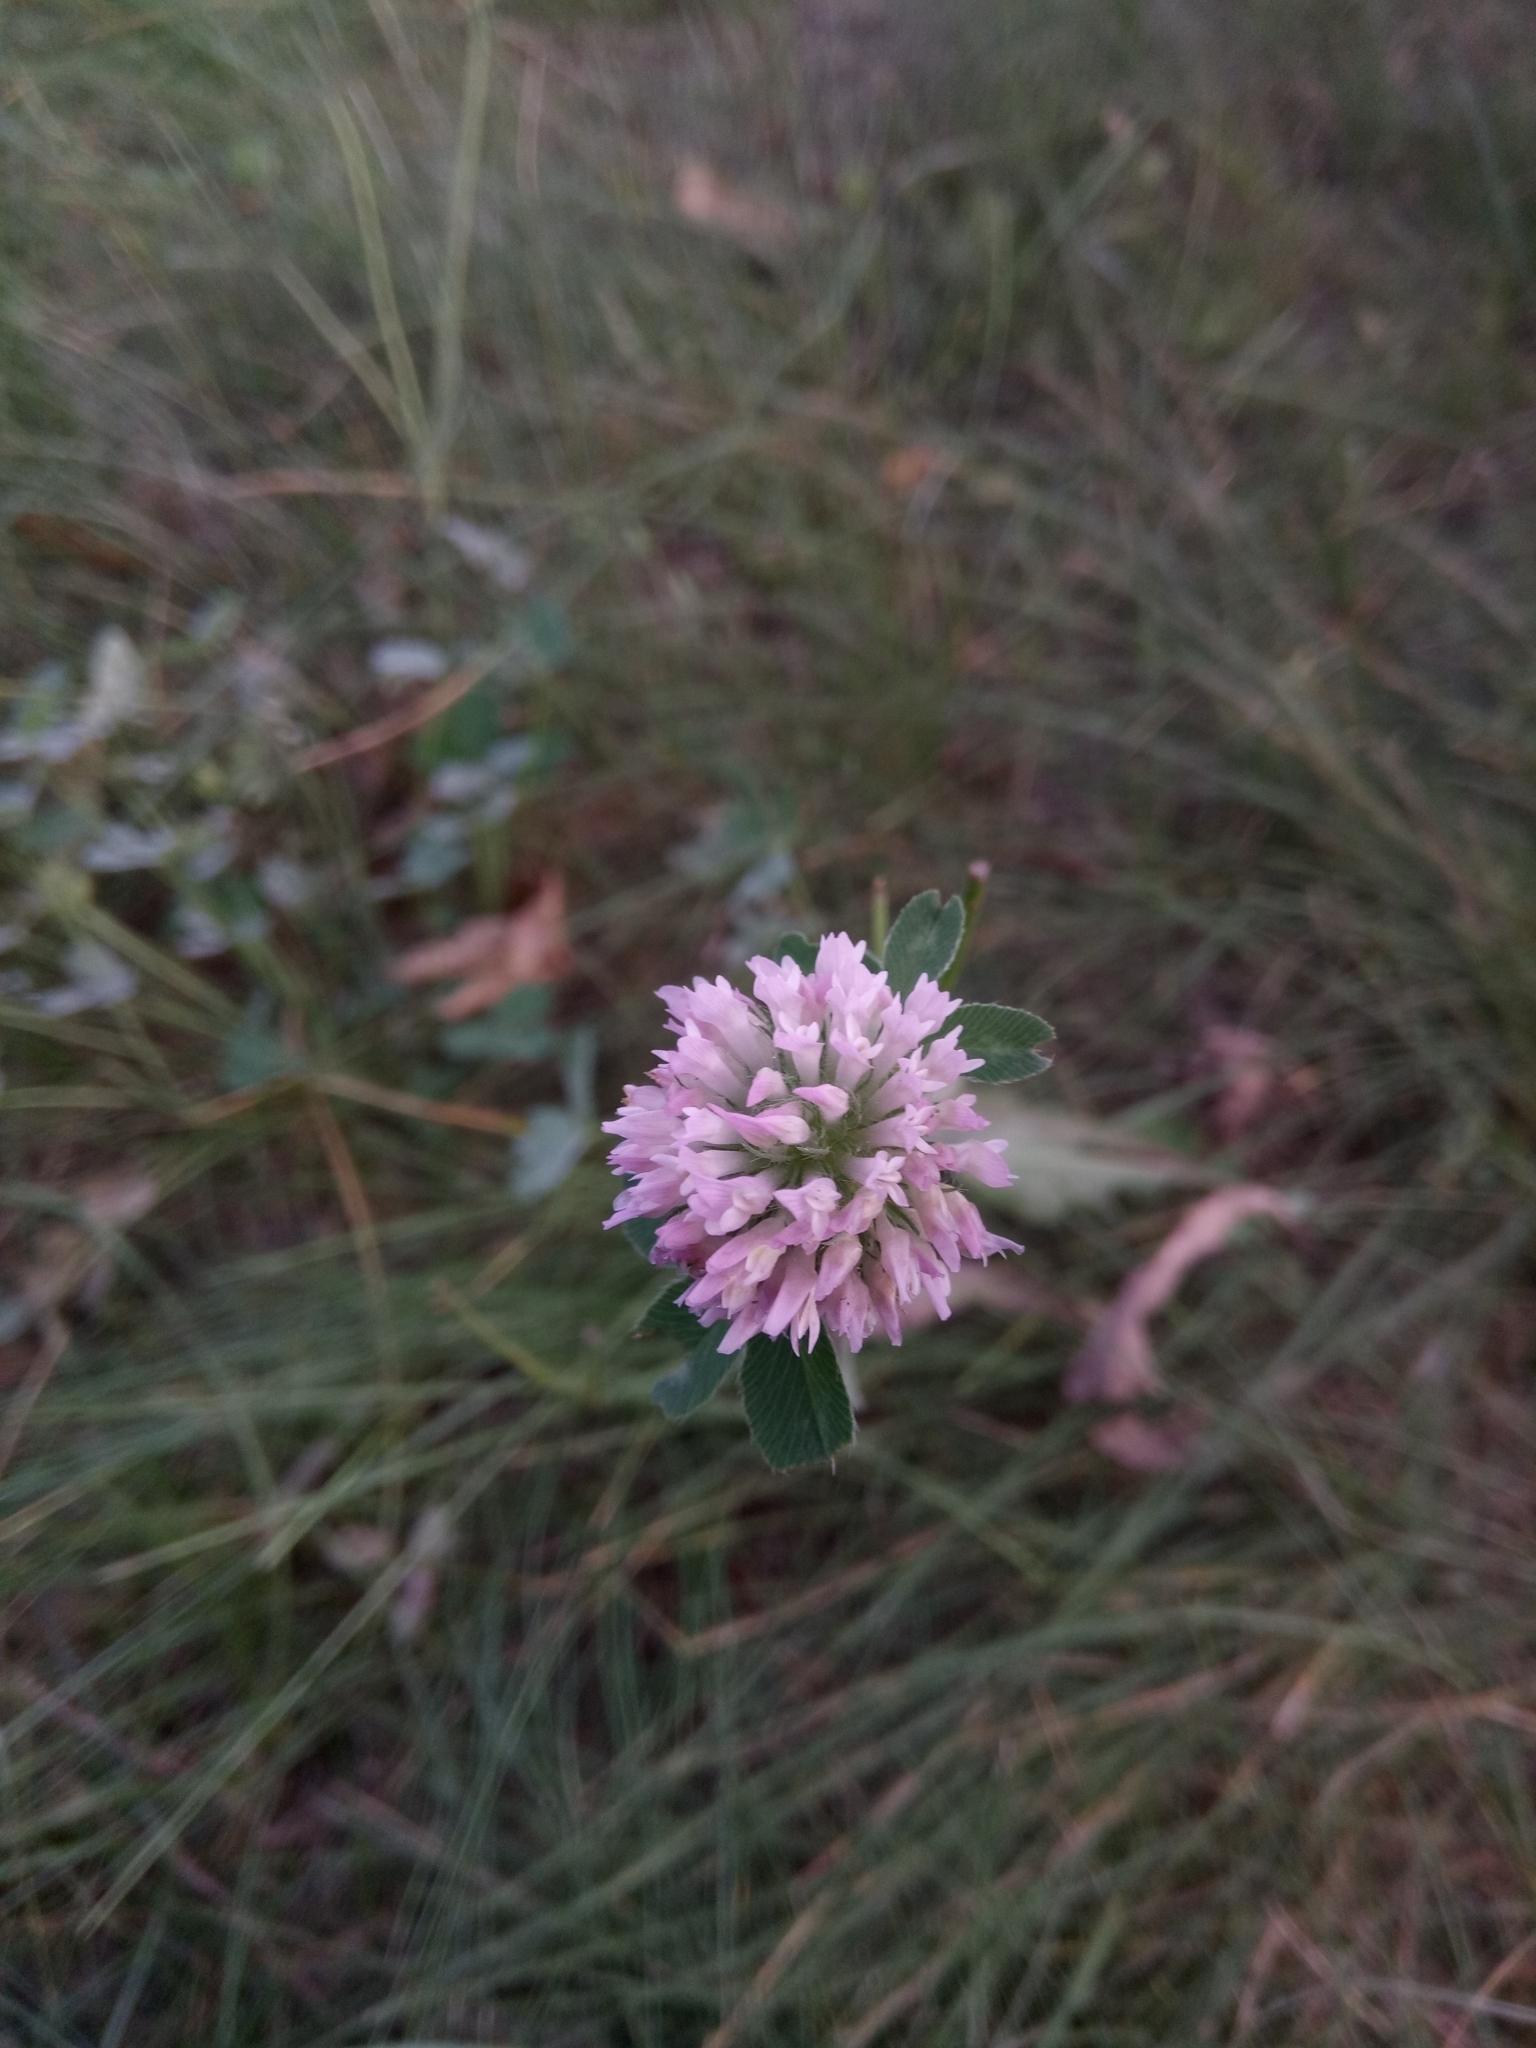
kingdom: Plantae
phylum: Tracheophyta
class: Magnoliopsida
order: Fabales
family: Fabaceae
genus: Trifolium
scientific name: Trifolium medium
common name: Zigzag clover
